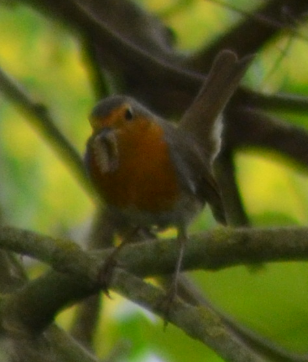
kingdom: Animalia
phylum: Chordata
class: Aves
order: Passeriformes
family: Muscicapidae
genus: Erithacus
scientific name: Erithacus rubecula
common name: European robin
